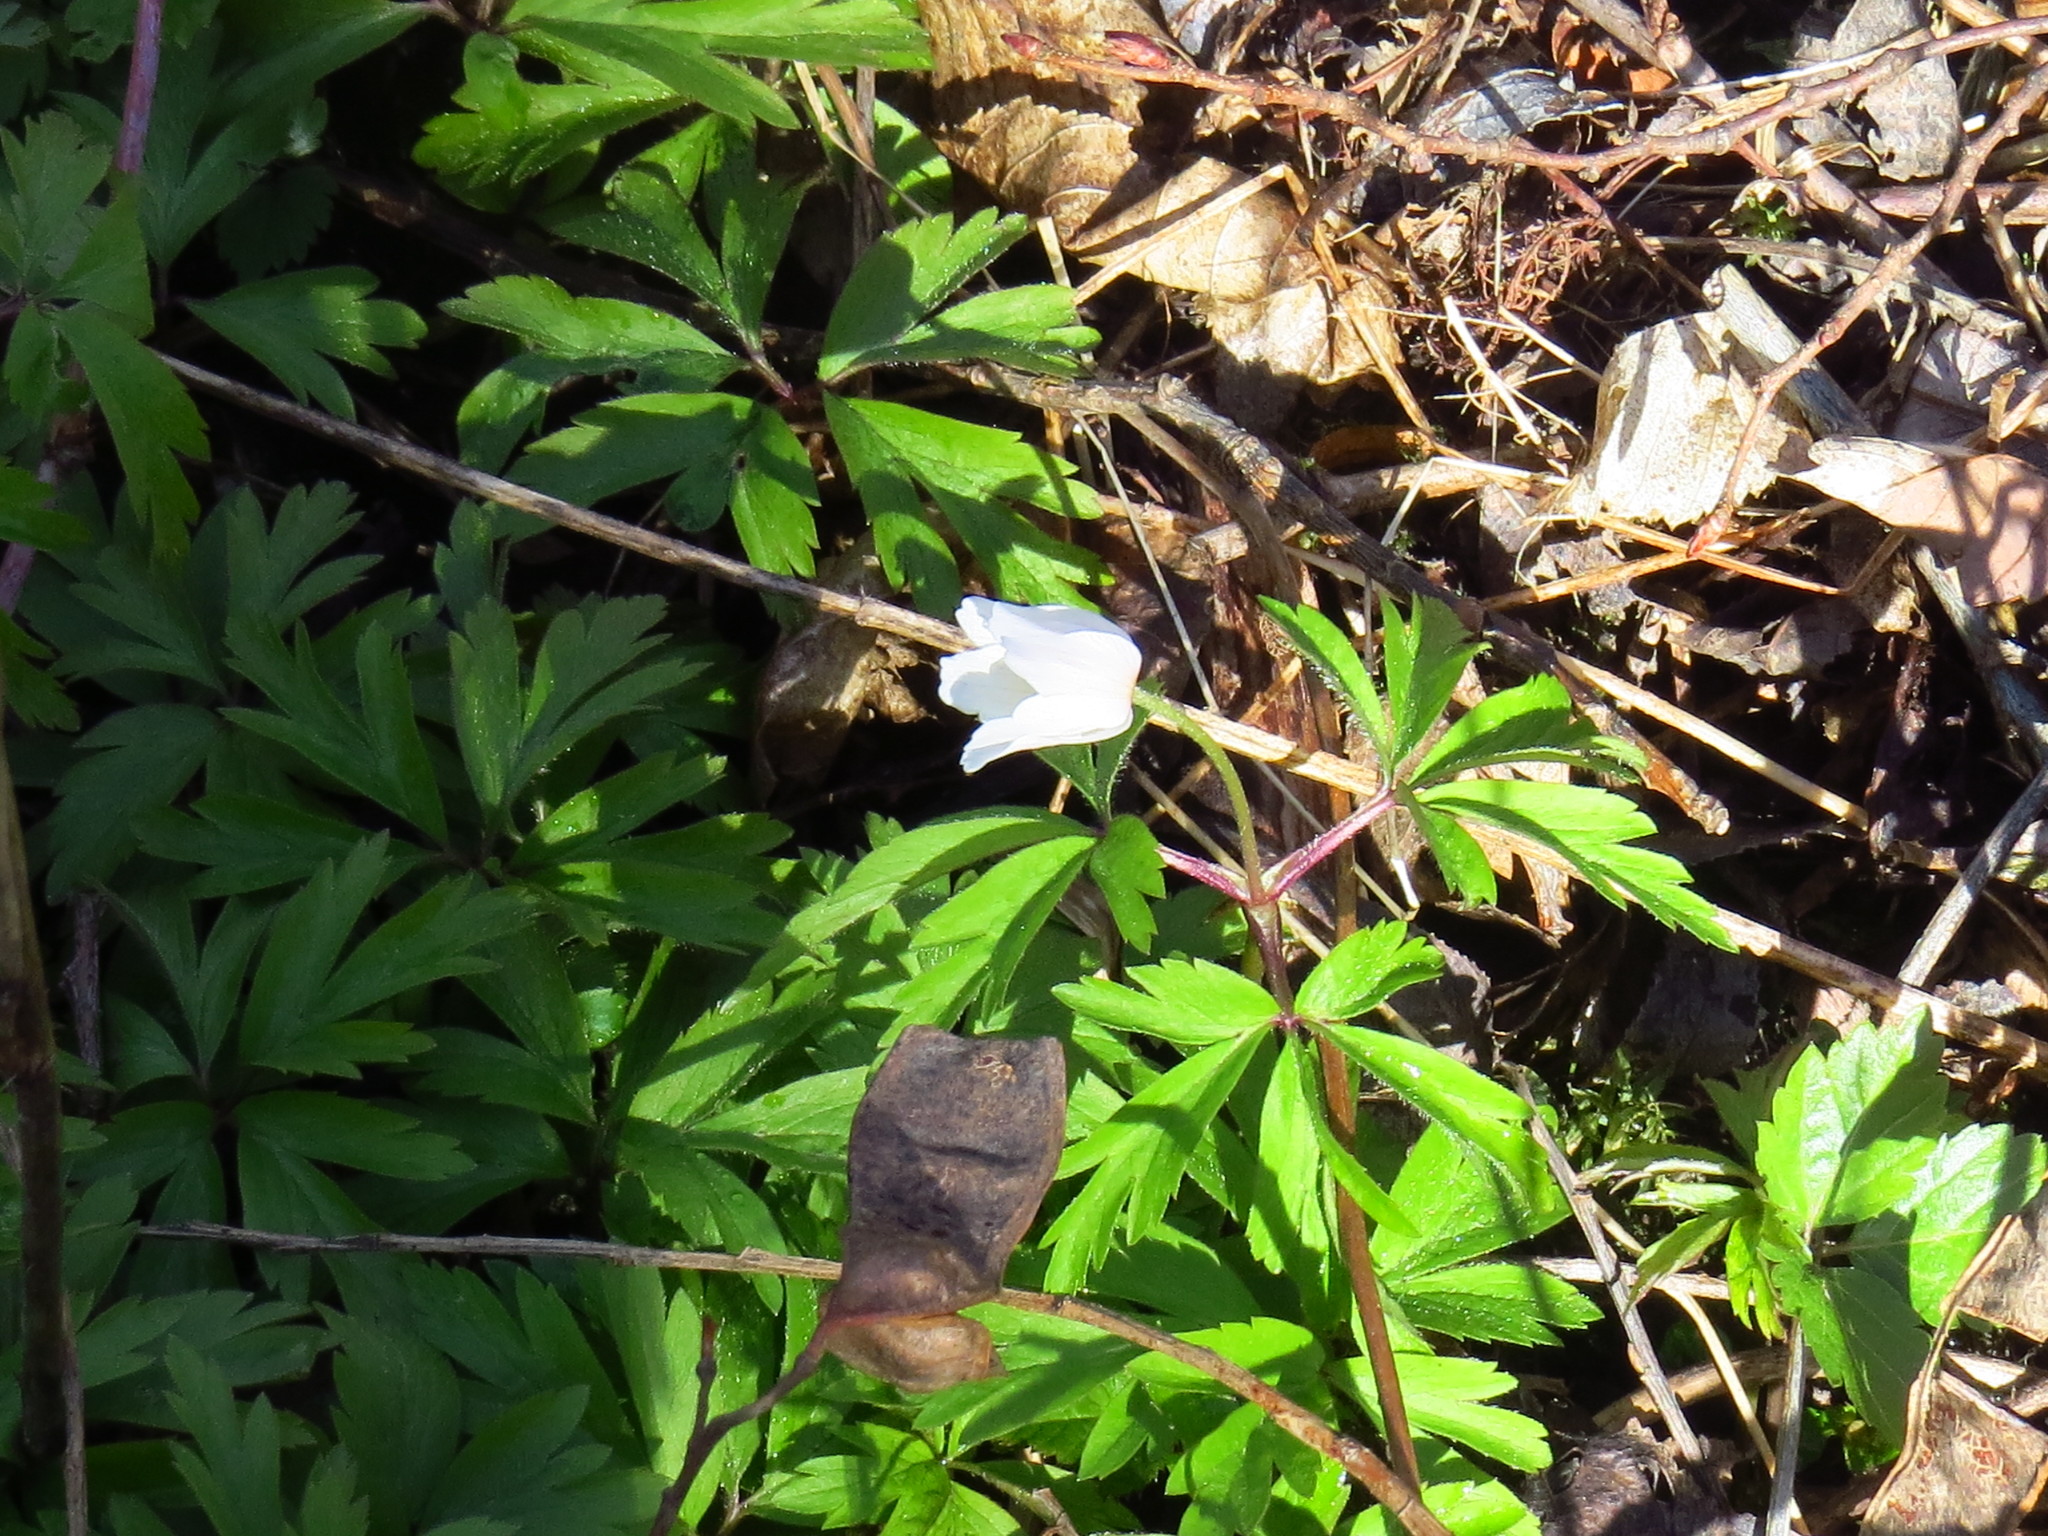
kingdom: Plantae
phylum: Tracheophyta
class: Magnoliopsida
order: Ranunculales
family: Ranunculaceae
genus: Anemone
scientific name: Anemone nemorosa
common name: Wood anemone
